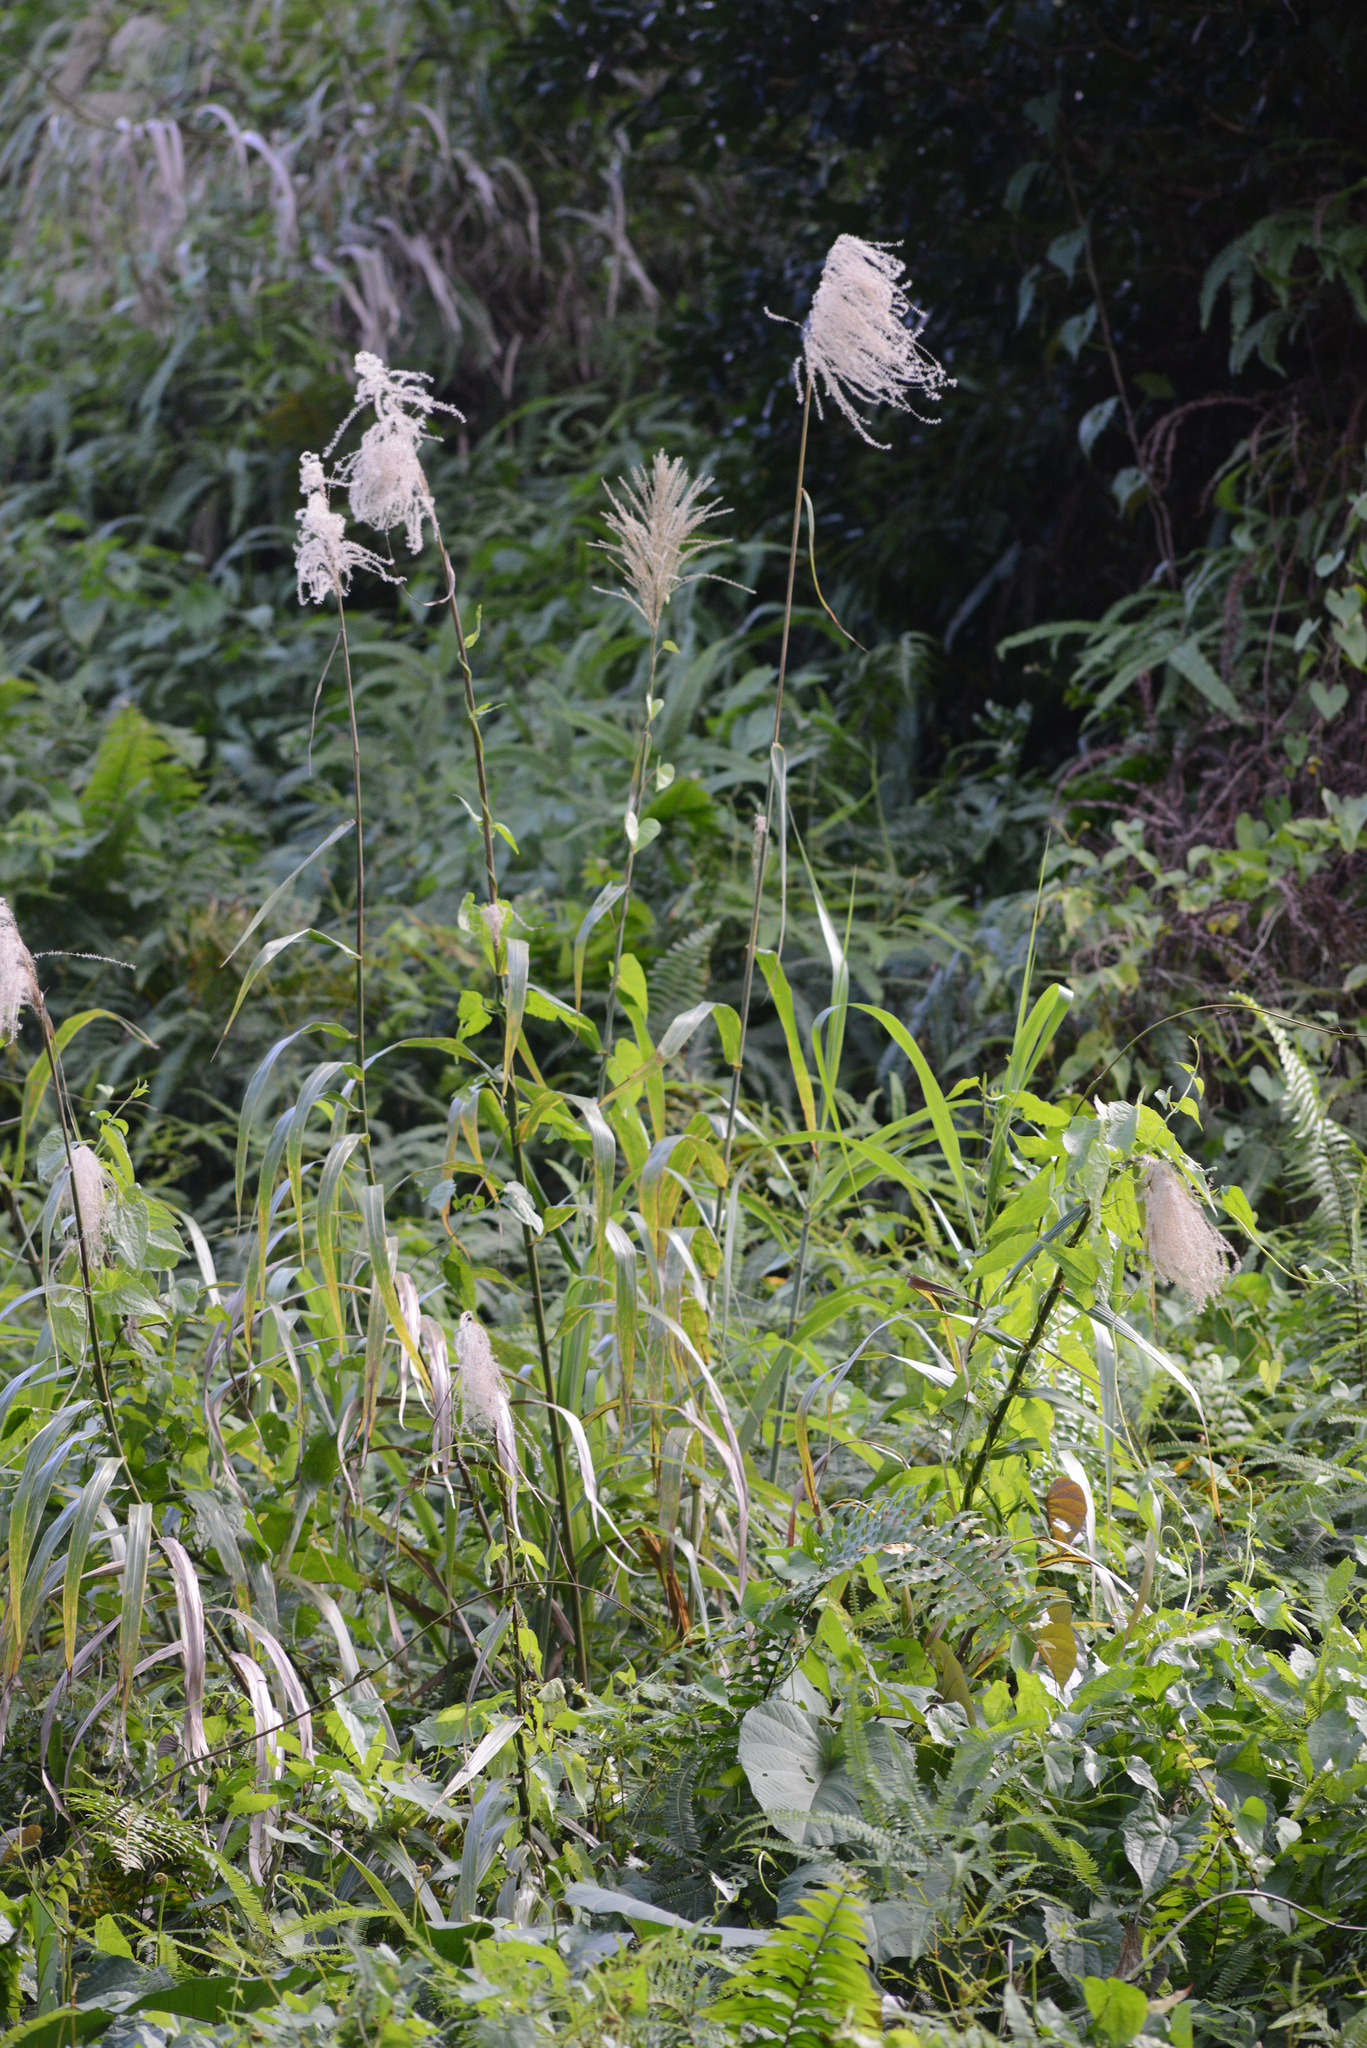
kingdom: Plantae
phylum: Tracheophyta
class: Liliopsida
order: Poales
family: Poaceae
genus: Miscanthus
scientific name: Miscanthus floridulus
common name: Pacific island silvergrass
